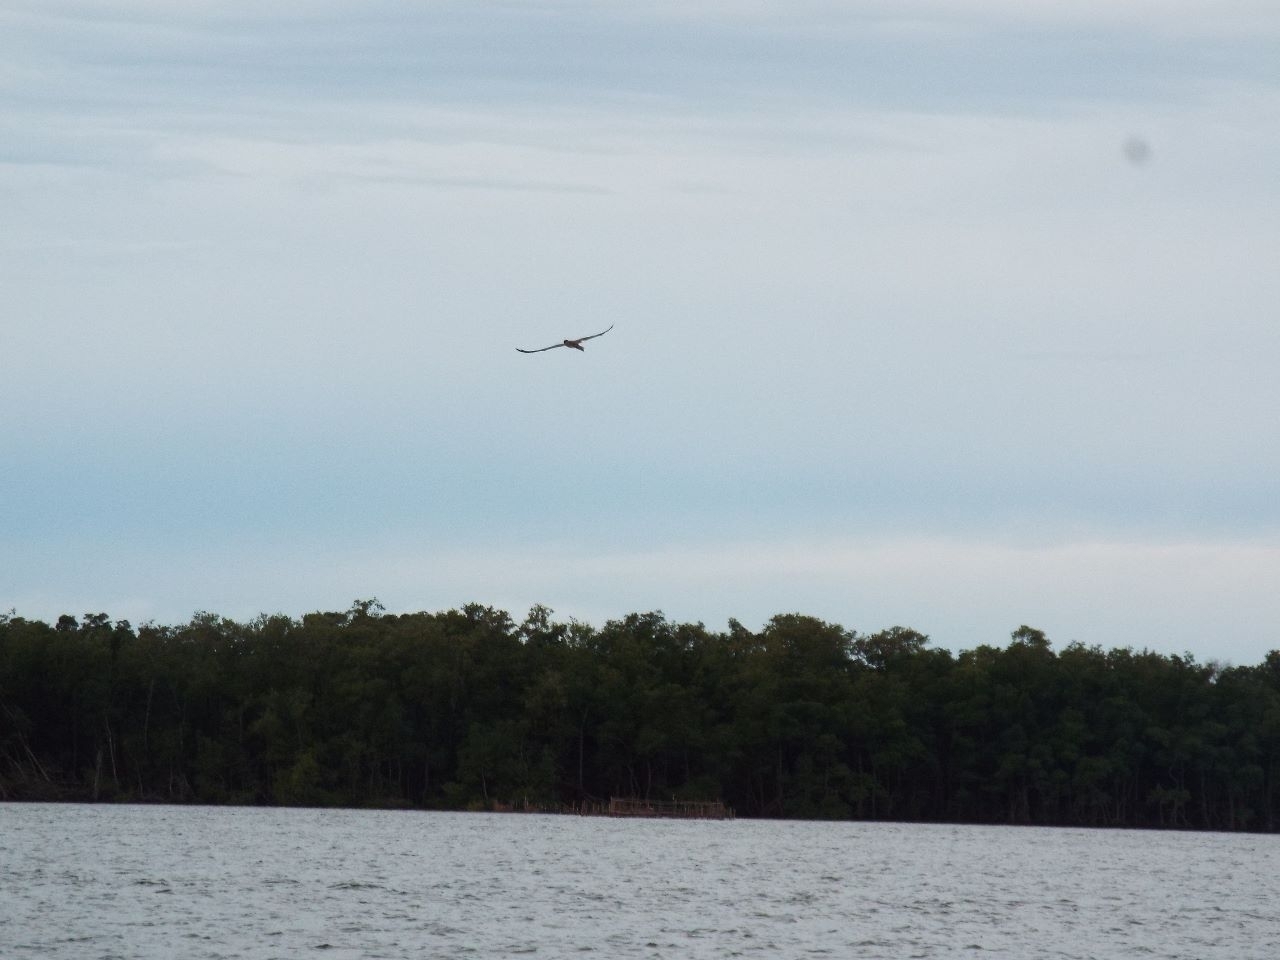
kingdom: Animalia
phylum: Chordata
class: Aves
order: Suliformes
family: Sulidae
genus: Sula
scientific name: Sula leucogaster
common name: Brown booby
